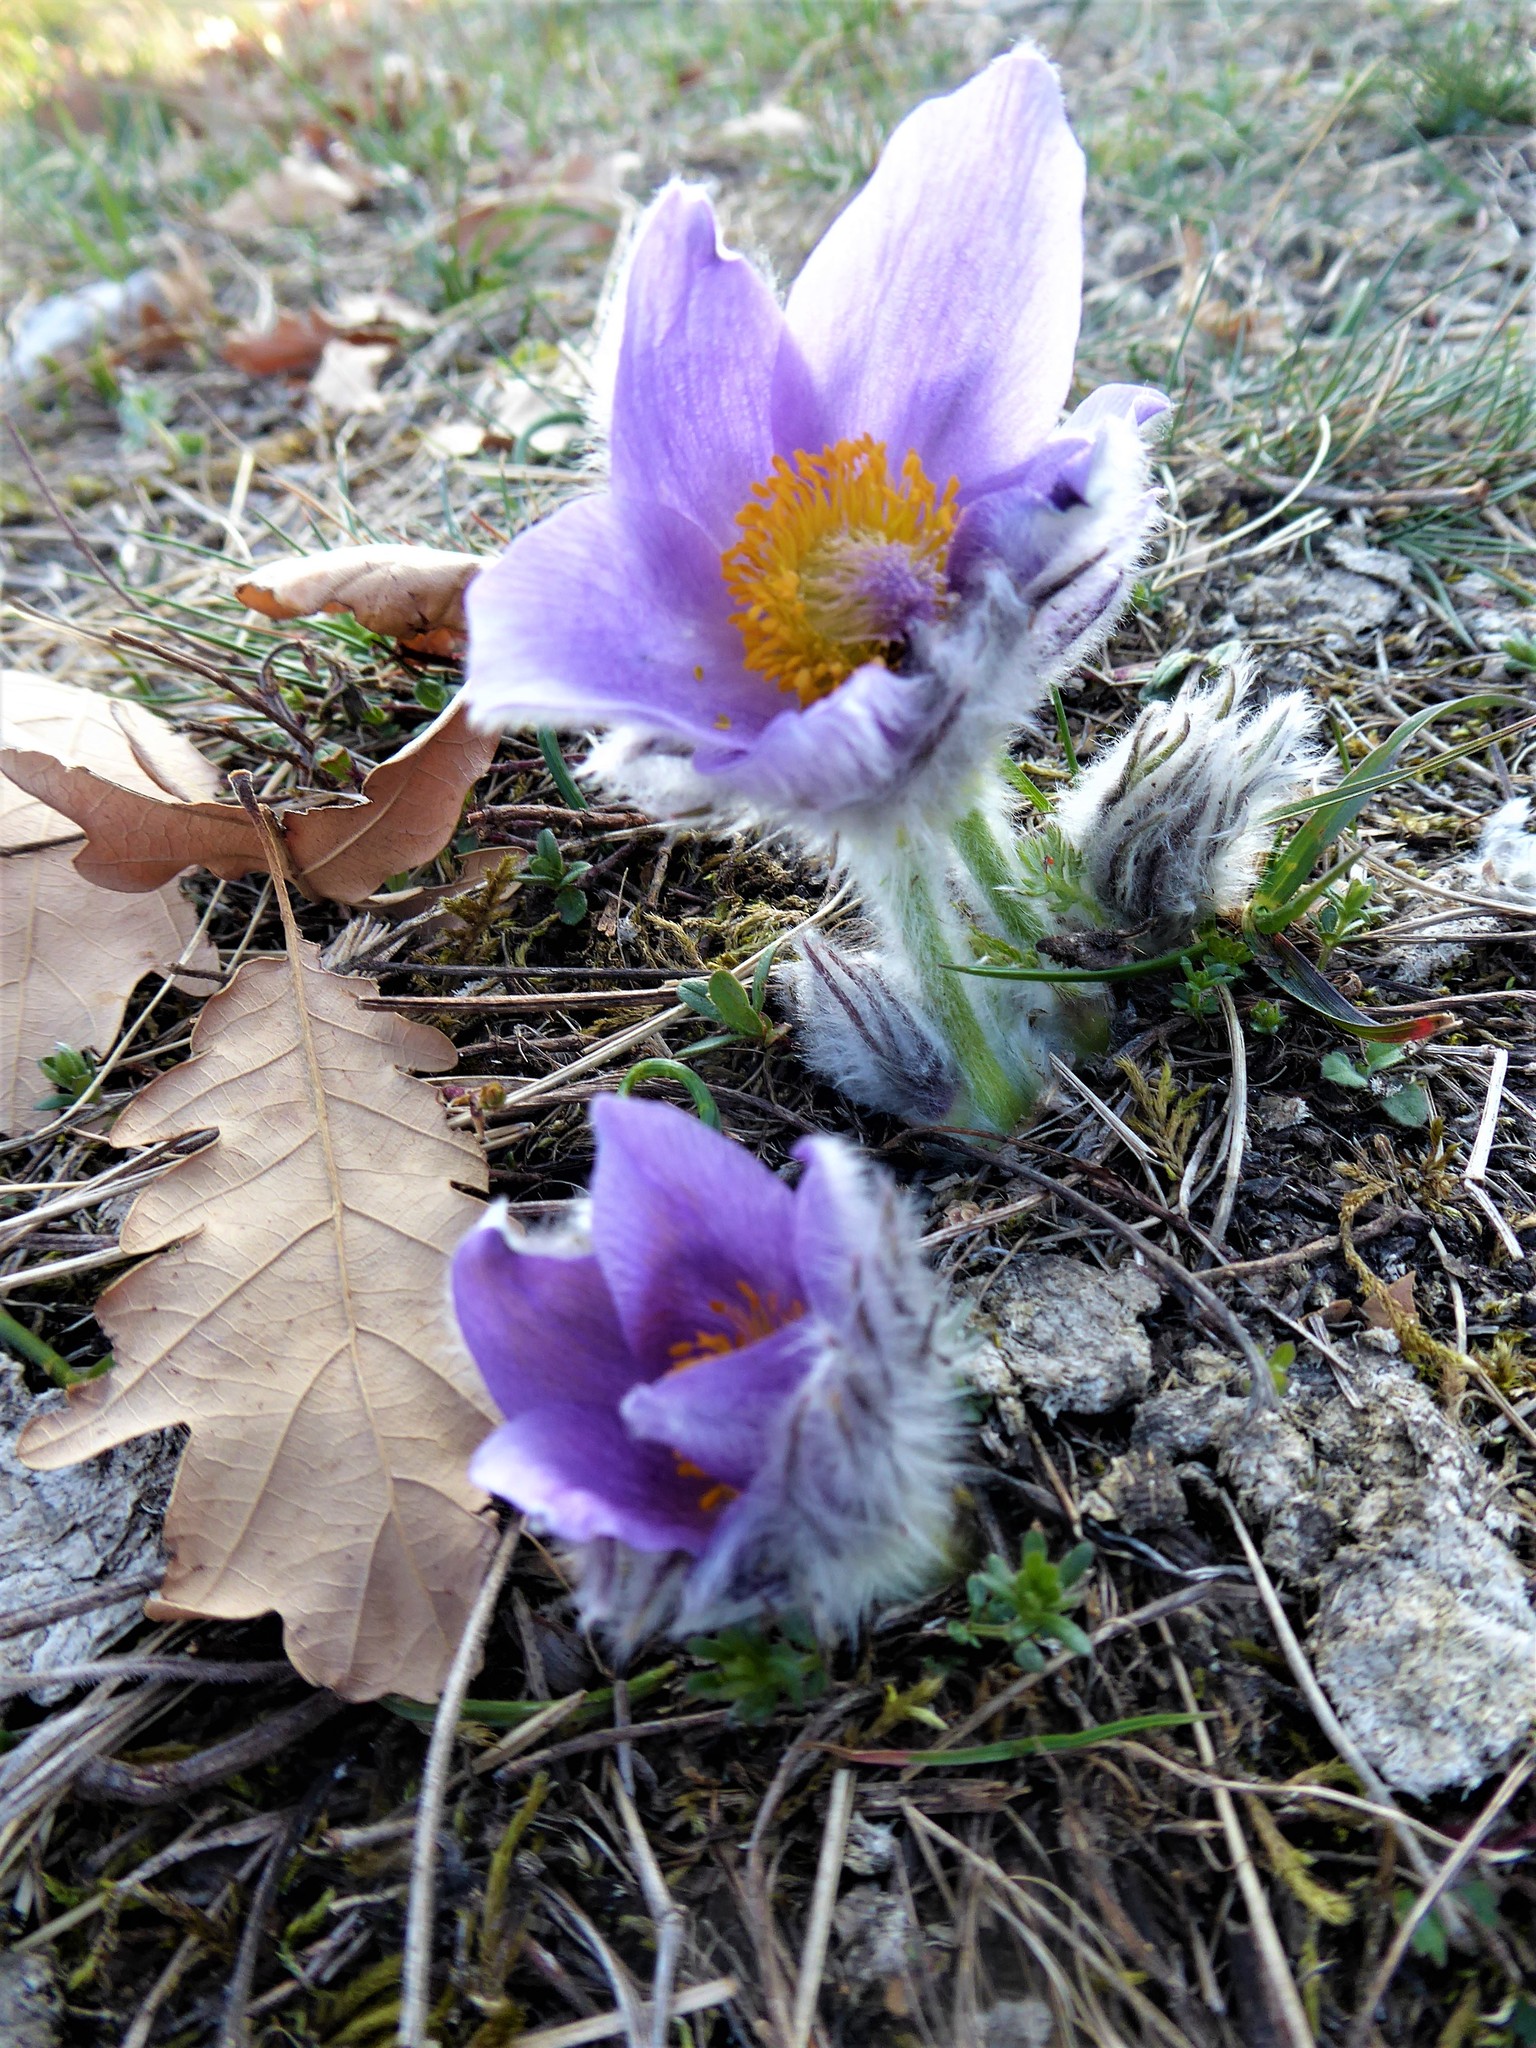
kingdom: Plantae
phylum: Tracheophyta
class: Magnoliopsida
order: Ranunculales
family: Ranunculaceae
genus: Pulsatilla
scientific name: Pulsatilla grandis
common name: Greater pasque flower
